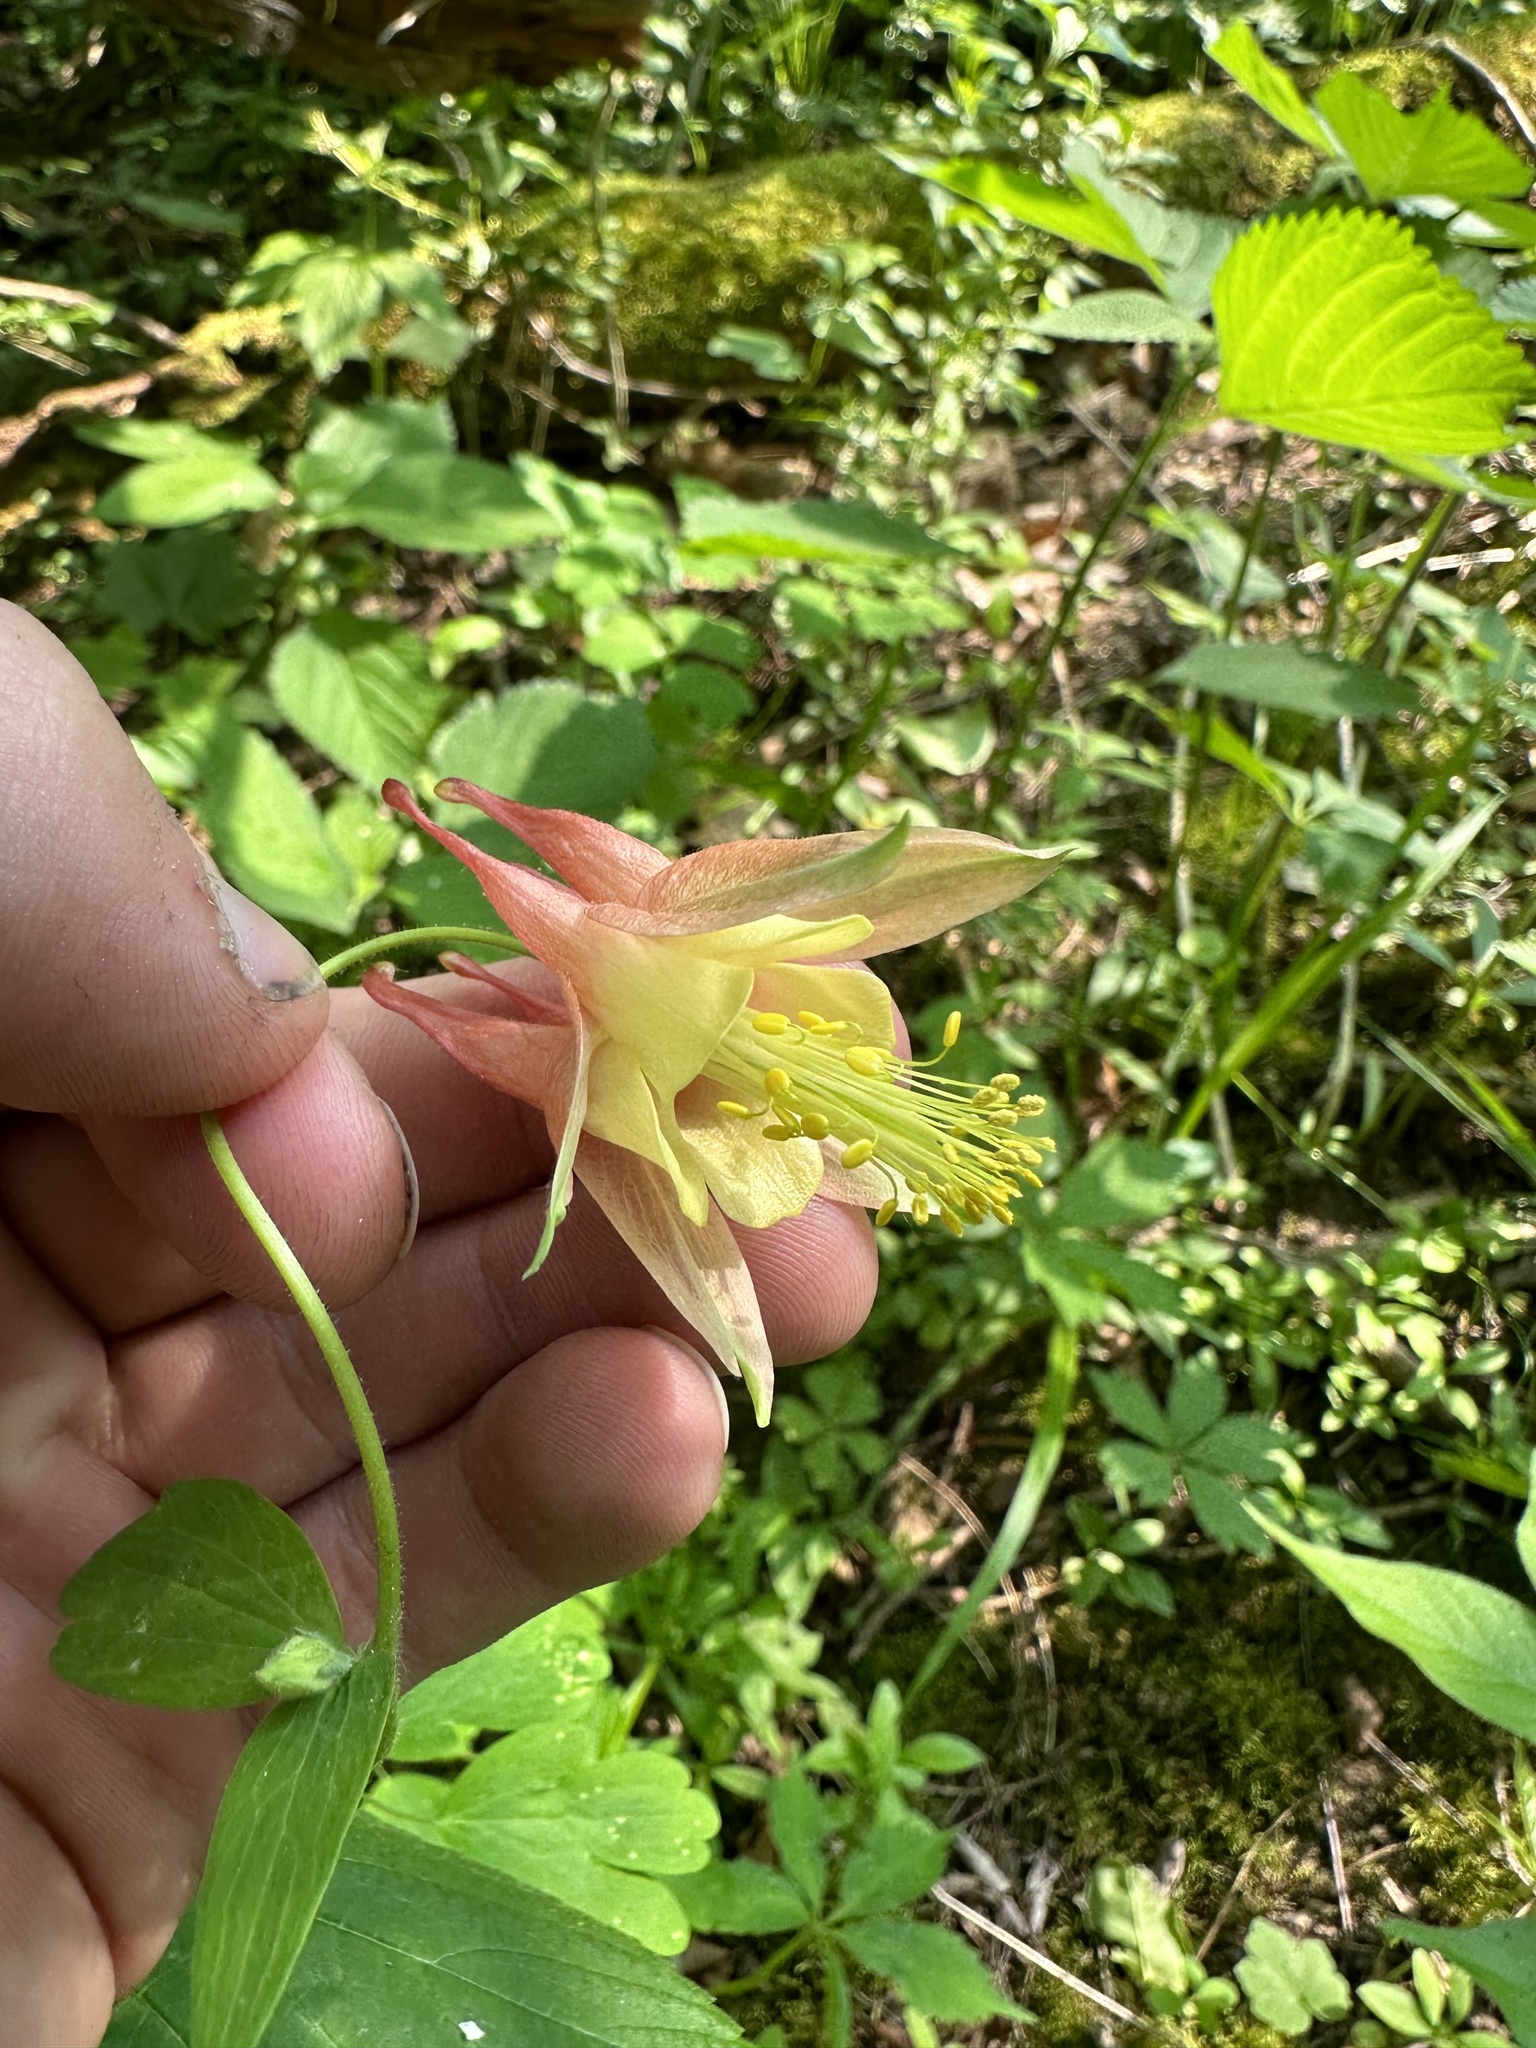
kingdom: Plantae
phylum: Tracheophyta
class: Magnoliopsida
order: Ranunculales
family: Ranunculaceae
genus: Aquilegia
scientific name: Aquilegia canadensis
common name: American columbine
